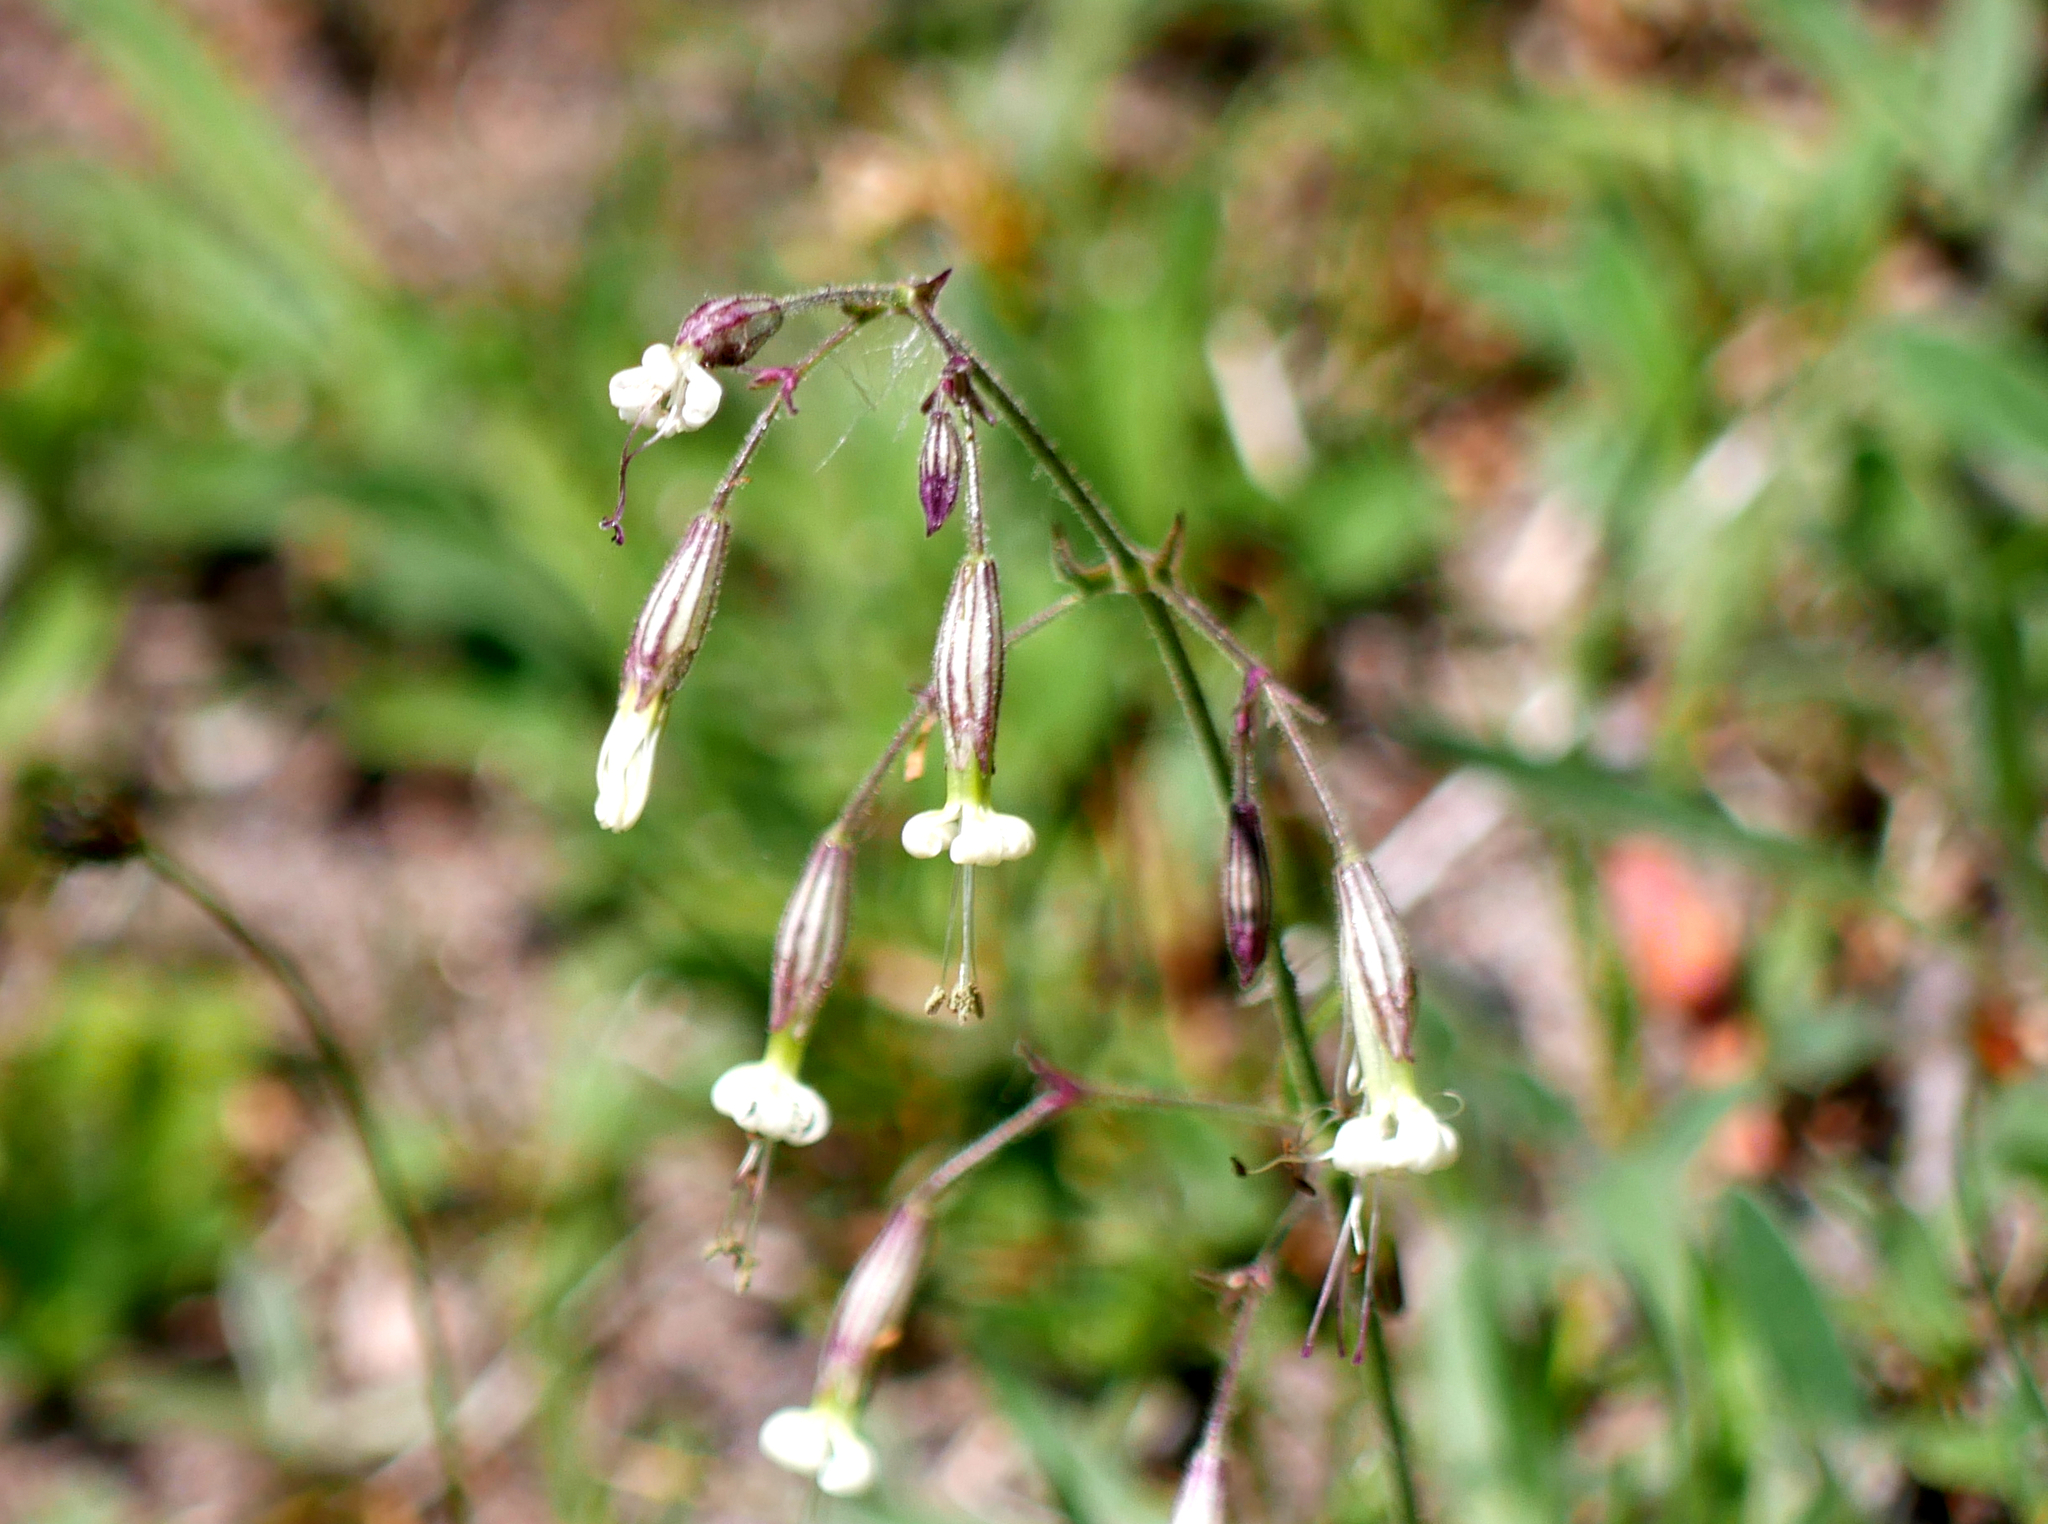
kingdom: Plantae
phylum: Tracheophyta
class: Magnoliopsida
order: Caryophyllales
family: Caryophyllaceae
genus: Silene
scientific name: Silene nutans
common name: Nottingham catchfly
